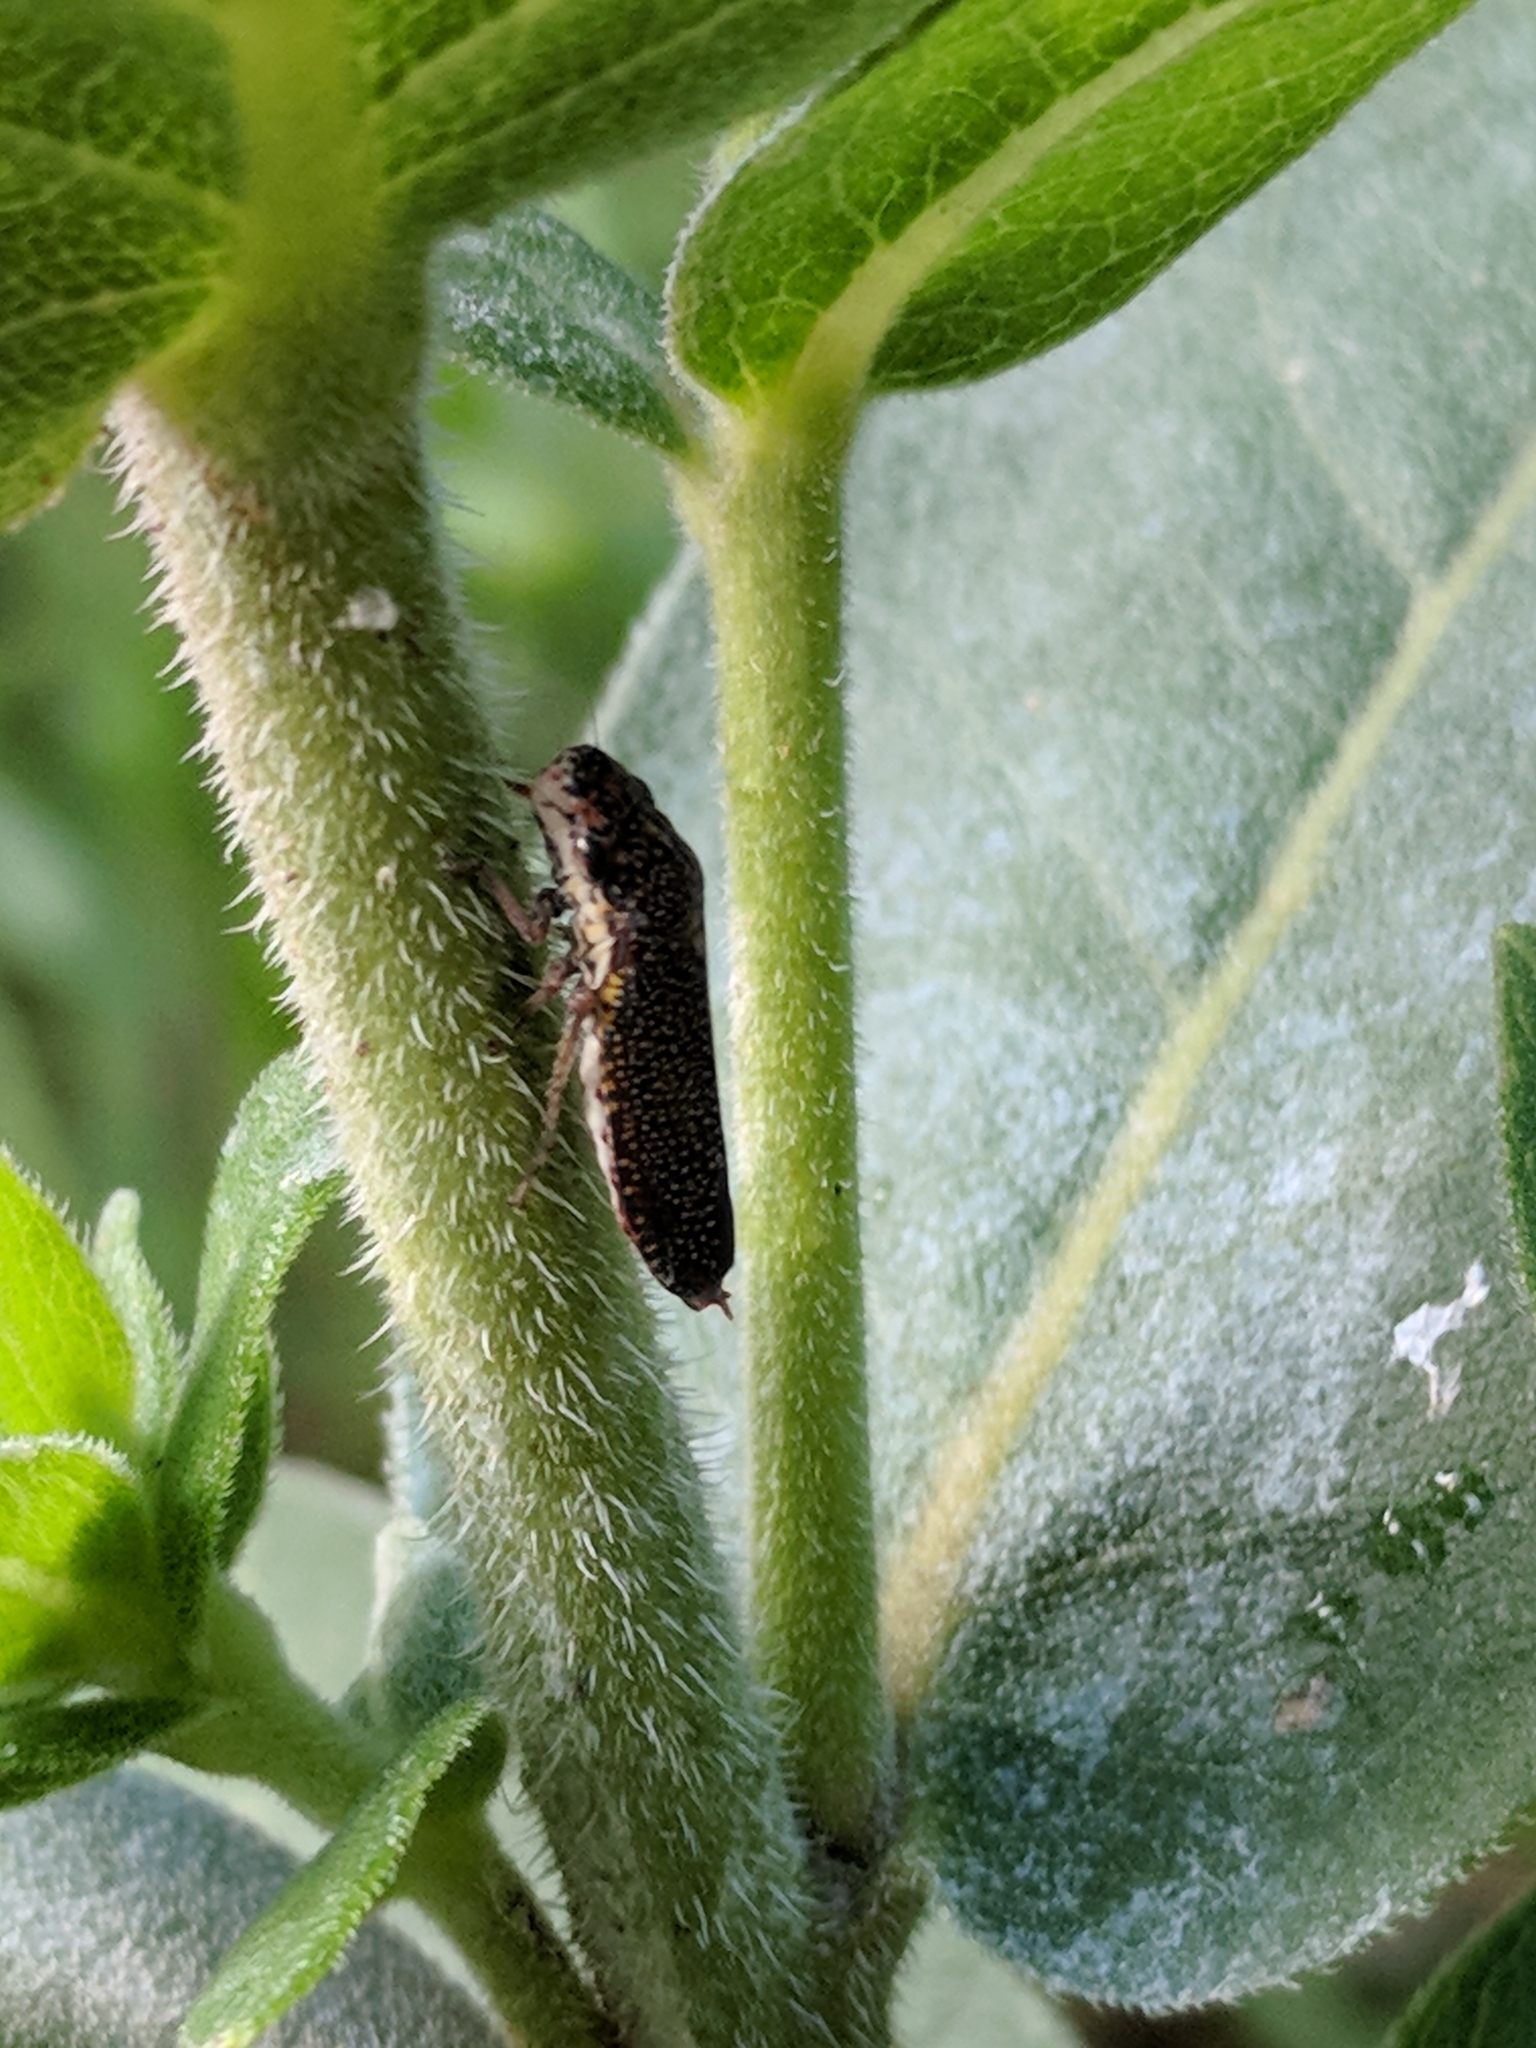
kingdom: Animalia
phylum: Arthropoda
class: Insecta
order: Hemiptera
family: Cicadellidae
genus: Paraulacizes
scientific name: Paraulacizes irrorata
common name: Speckled sharpshooter
